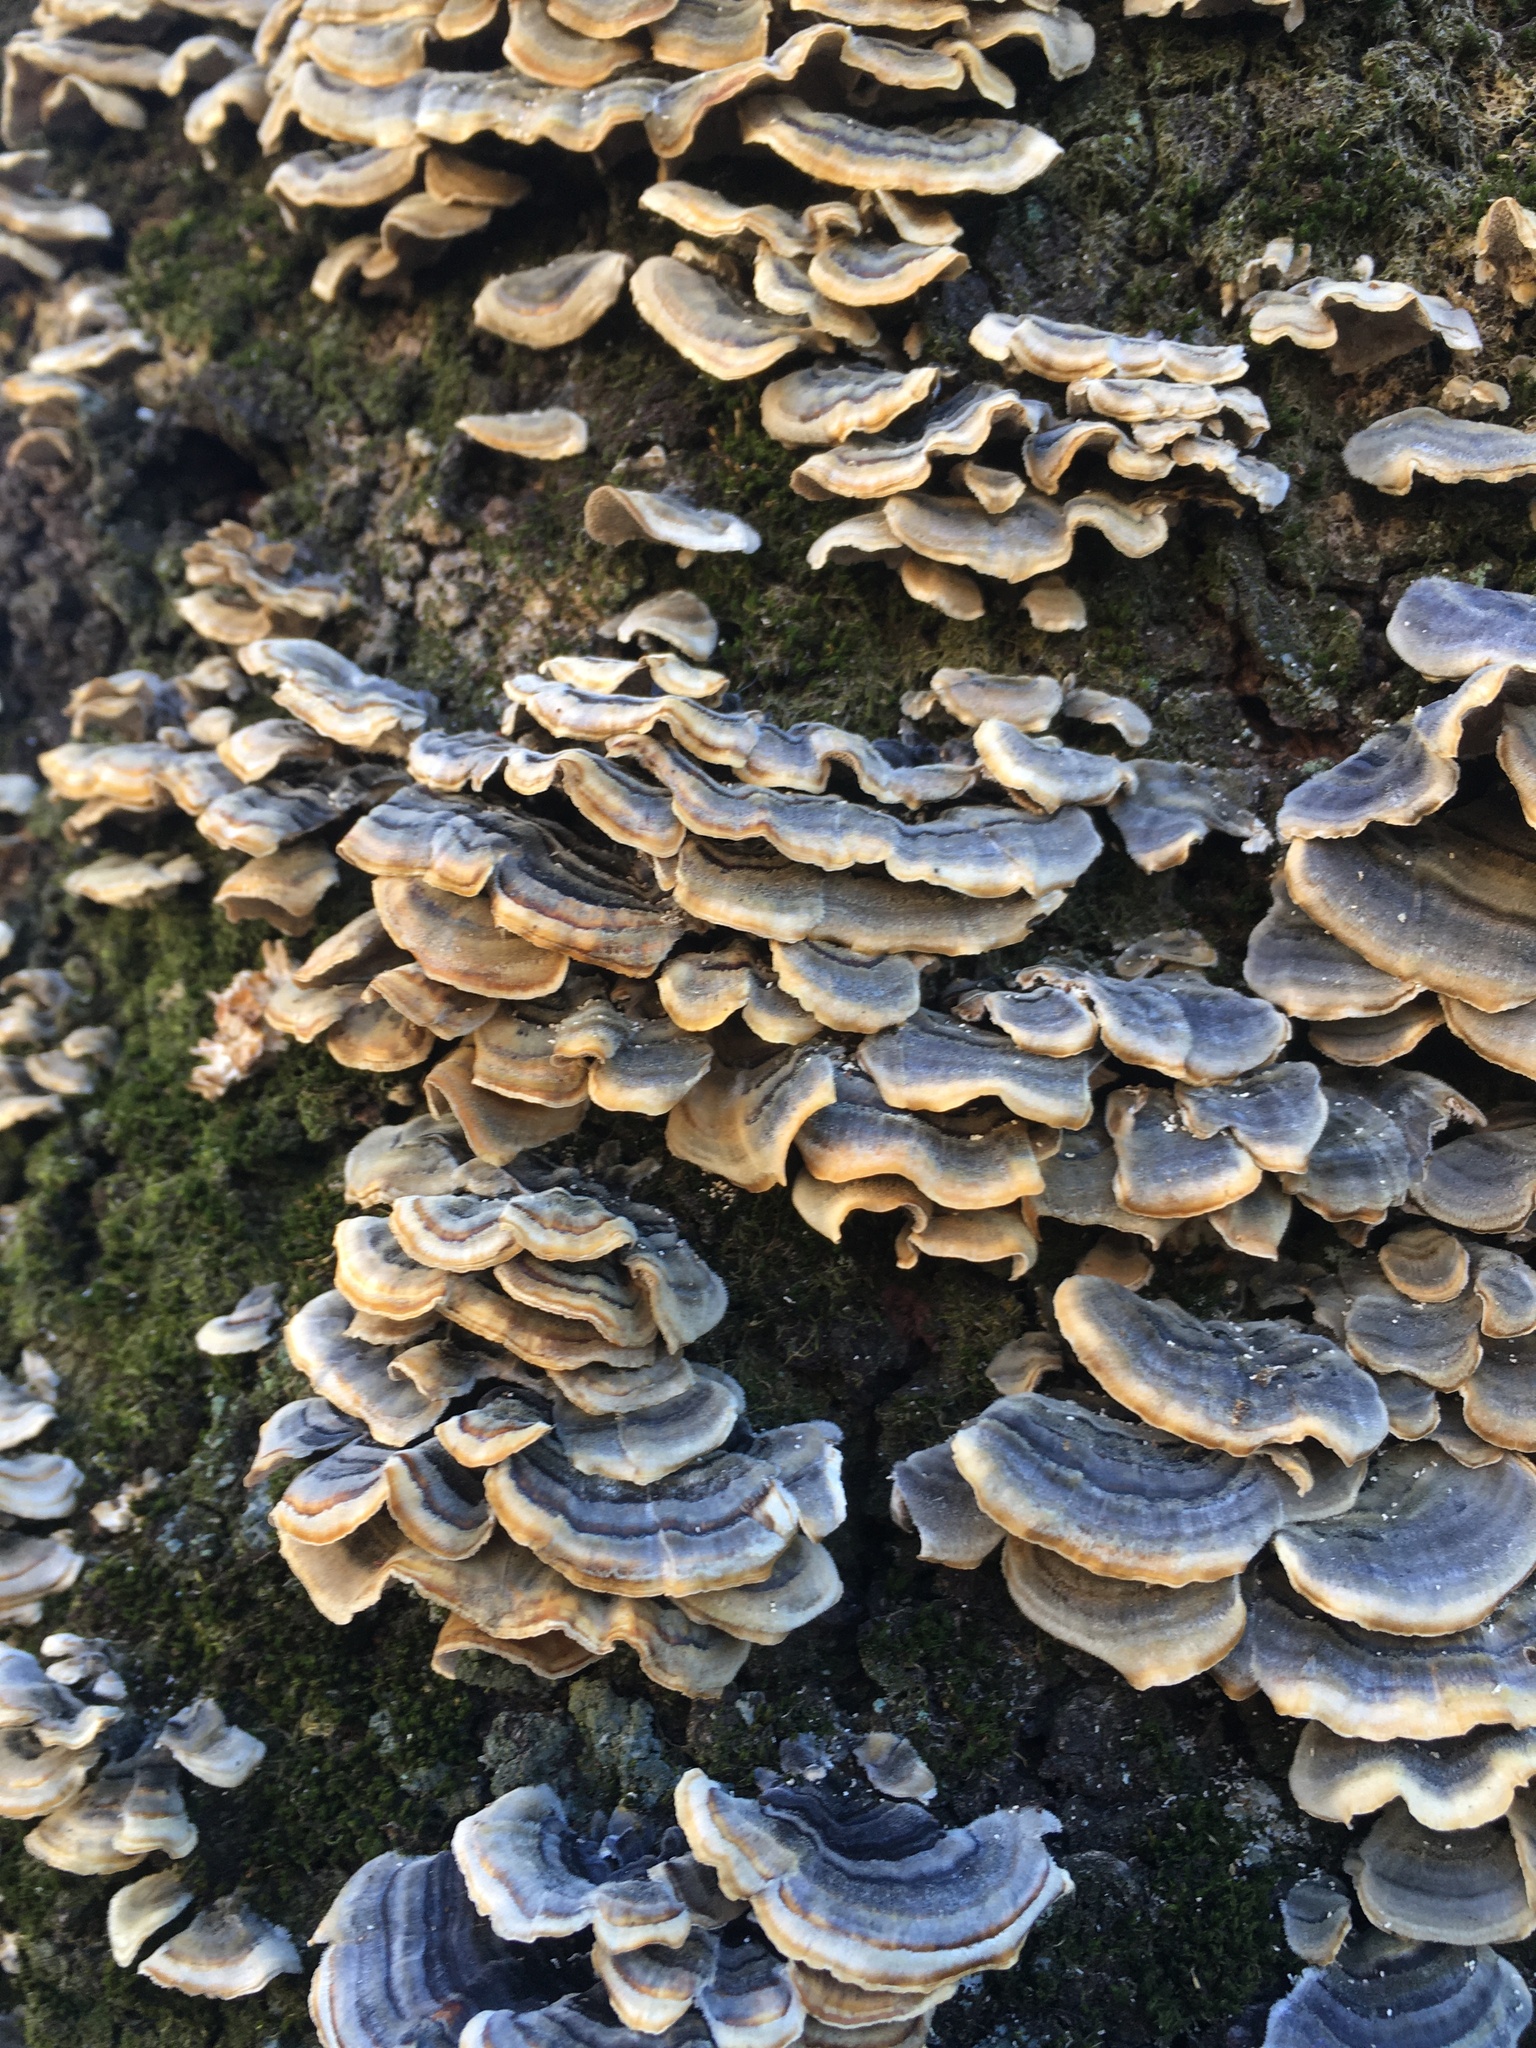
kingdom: Fungi
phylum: Basidiomycota
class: Agaricomycetes
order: Polyporales
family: Polyporaceae
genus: Trametes
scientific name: Trametes versicolor
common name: Turkeytail
